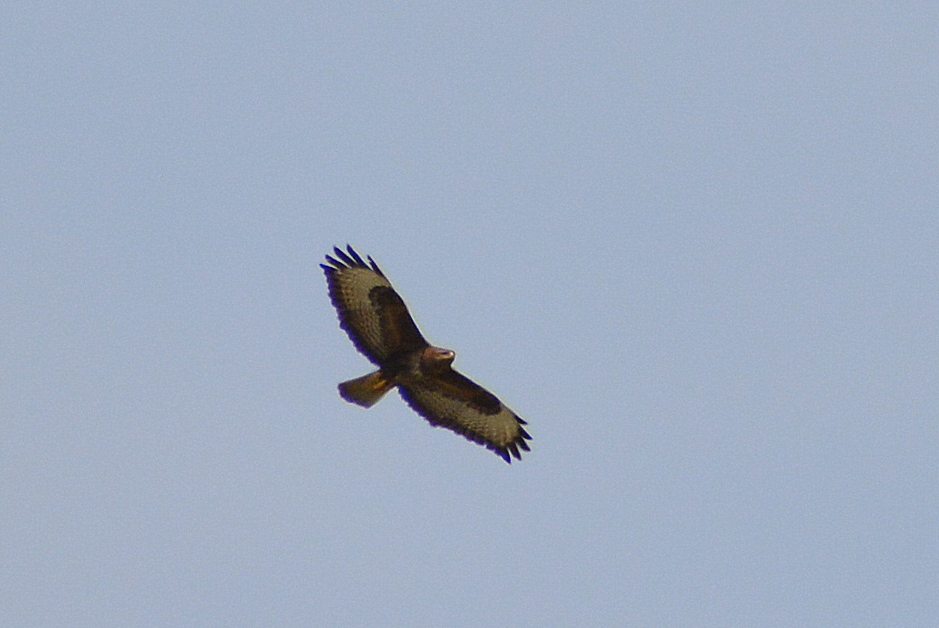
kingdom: Animalia
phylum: Chordata
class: Aves
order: Accipitriformes
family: Accipitridae
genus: Buteo
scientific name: Buteo buteo
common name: Common buzzard
